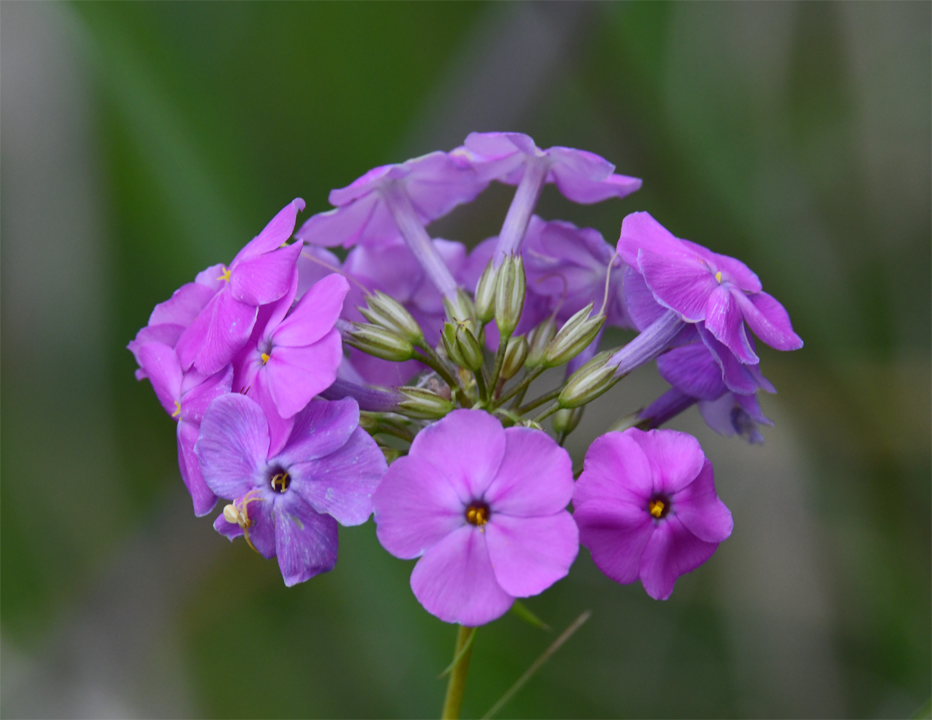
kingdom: Plantae
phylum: Tracheophyta
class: Magnoliopsida
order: Ericales
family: Polemoniaceae
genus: Phlox
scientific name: Phlox glaberrima
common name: Smooth phlox
